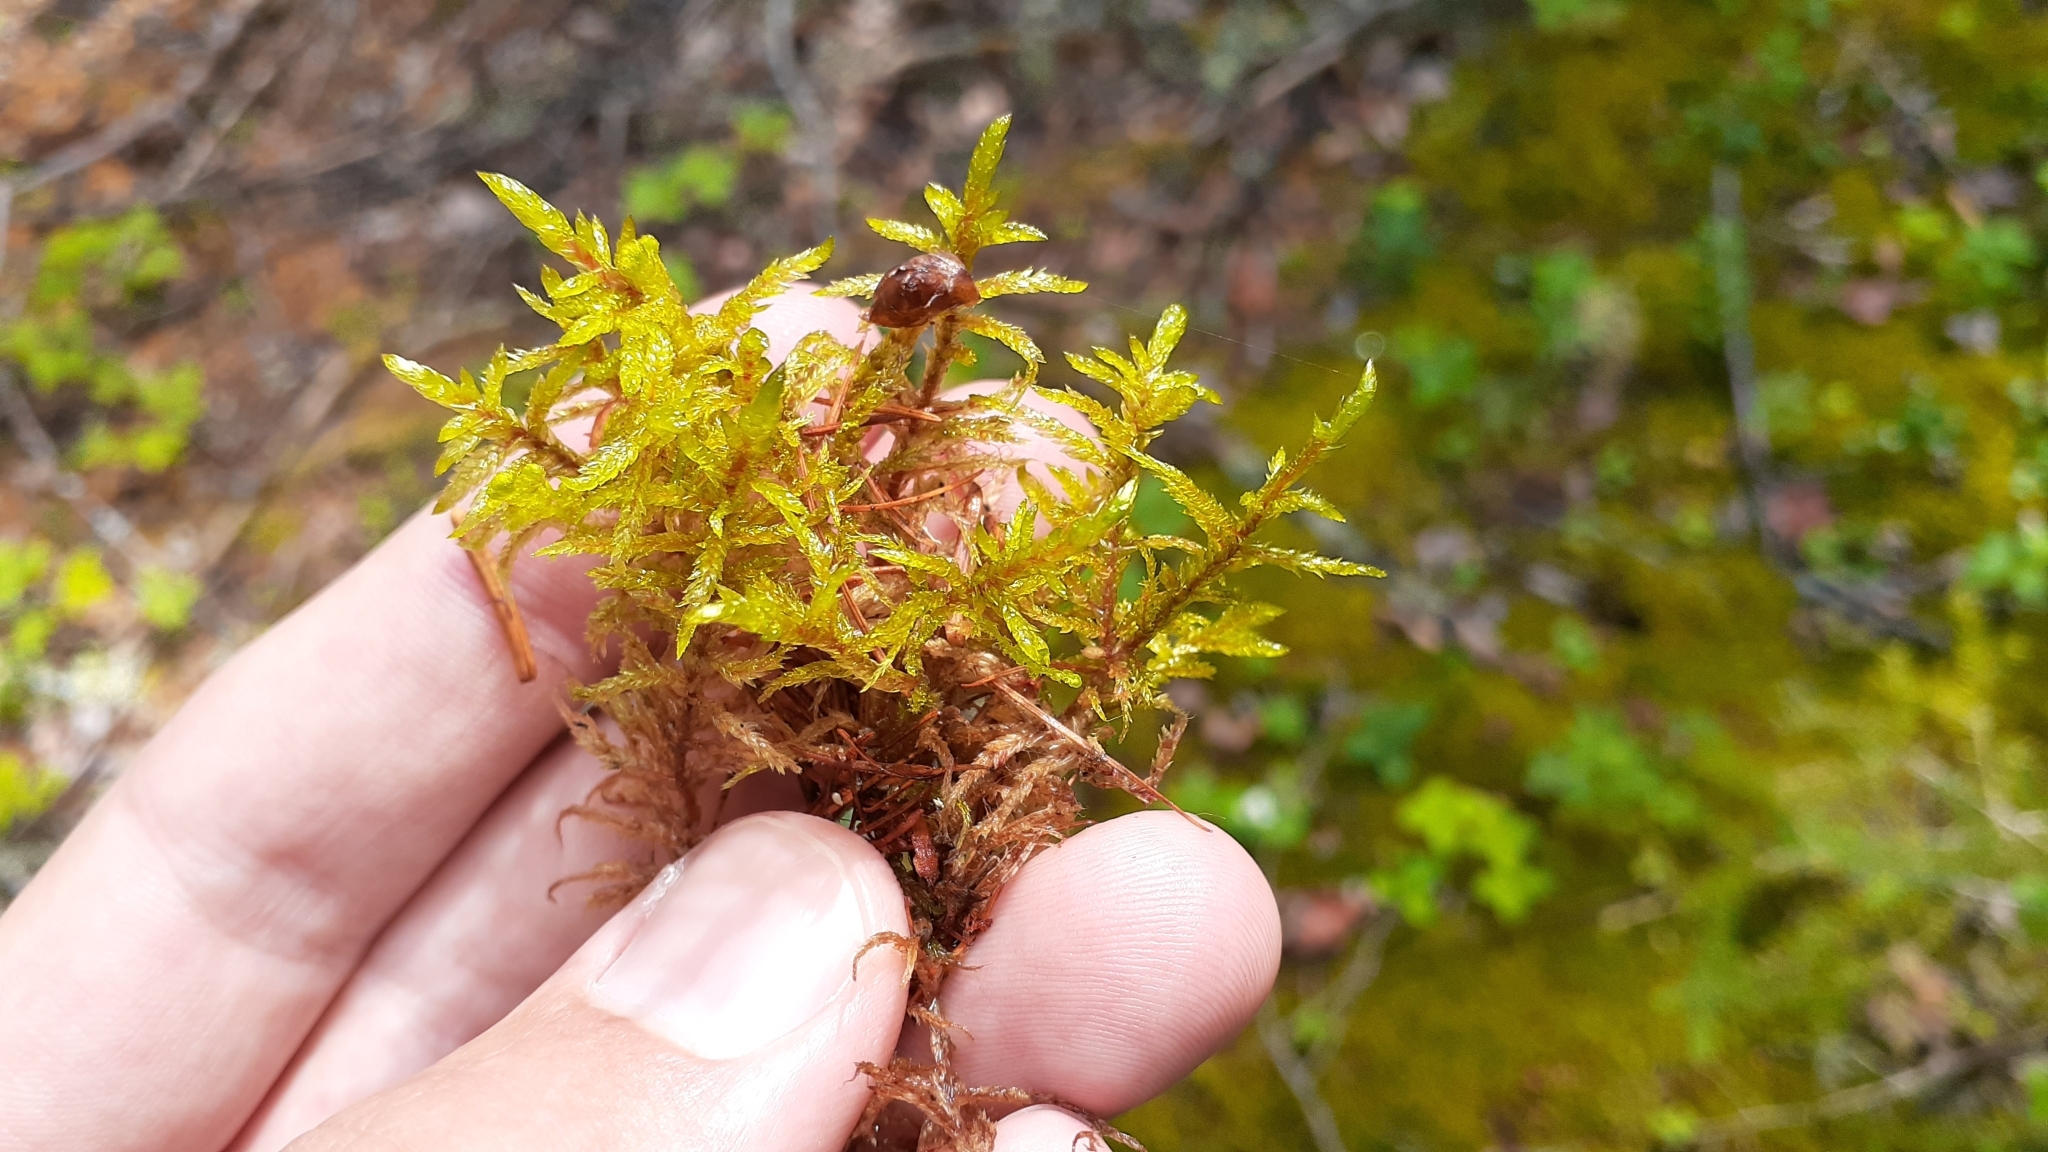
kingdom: Plantae
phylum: Bryophyta
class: Bryopsida
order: Hypnales
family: Hylocomiaceae
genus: Pleurozium
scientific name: Pleurozium schreberi
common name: Red-stemmed feather moss
